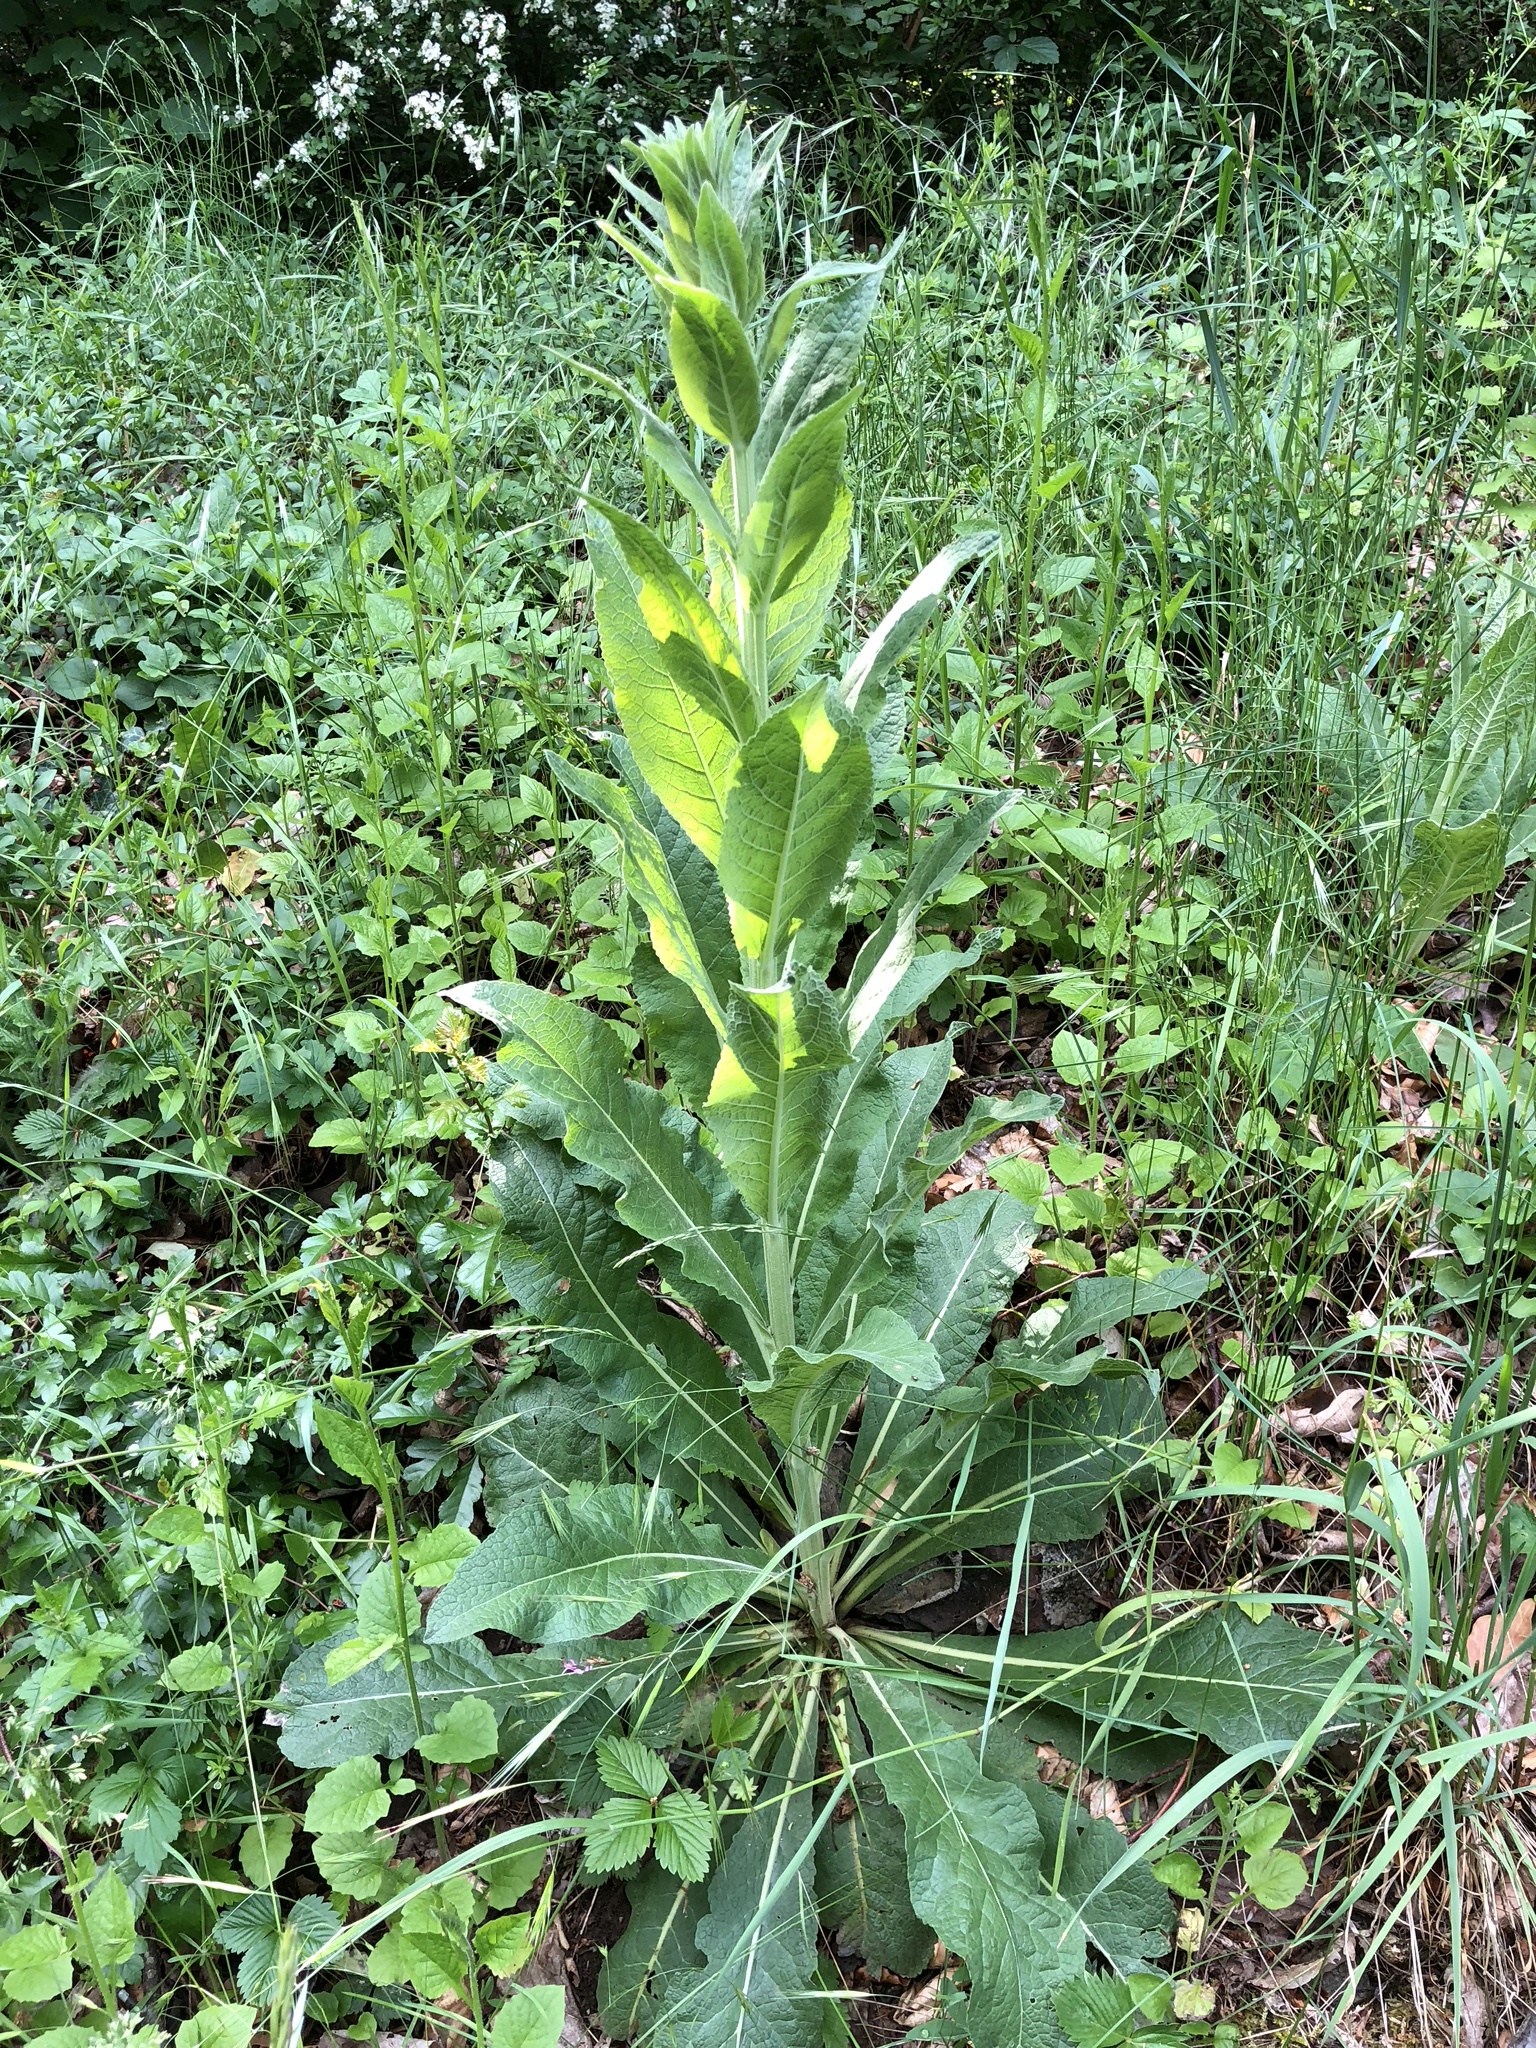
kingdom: Plantae
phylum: Tracheophyta
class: Magnoliopsida
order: Lamiales
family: Scrophulariaceae
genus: Verbascum
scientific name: Verbascum lychnitis
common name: White mullein
